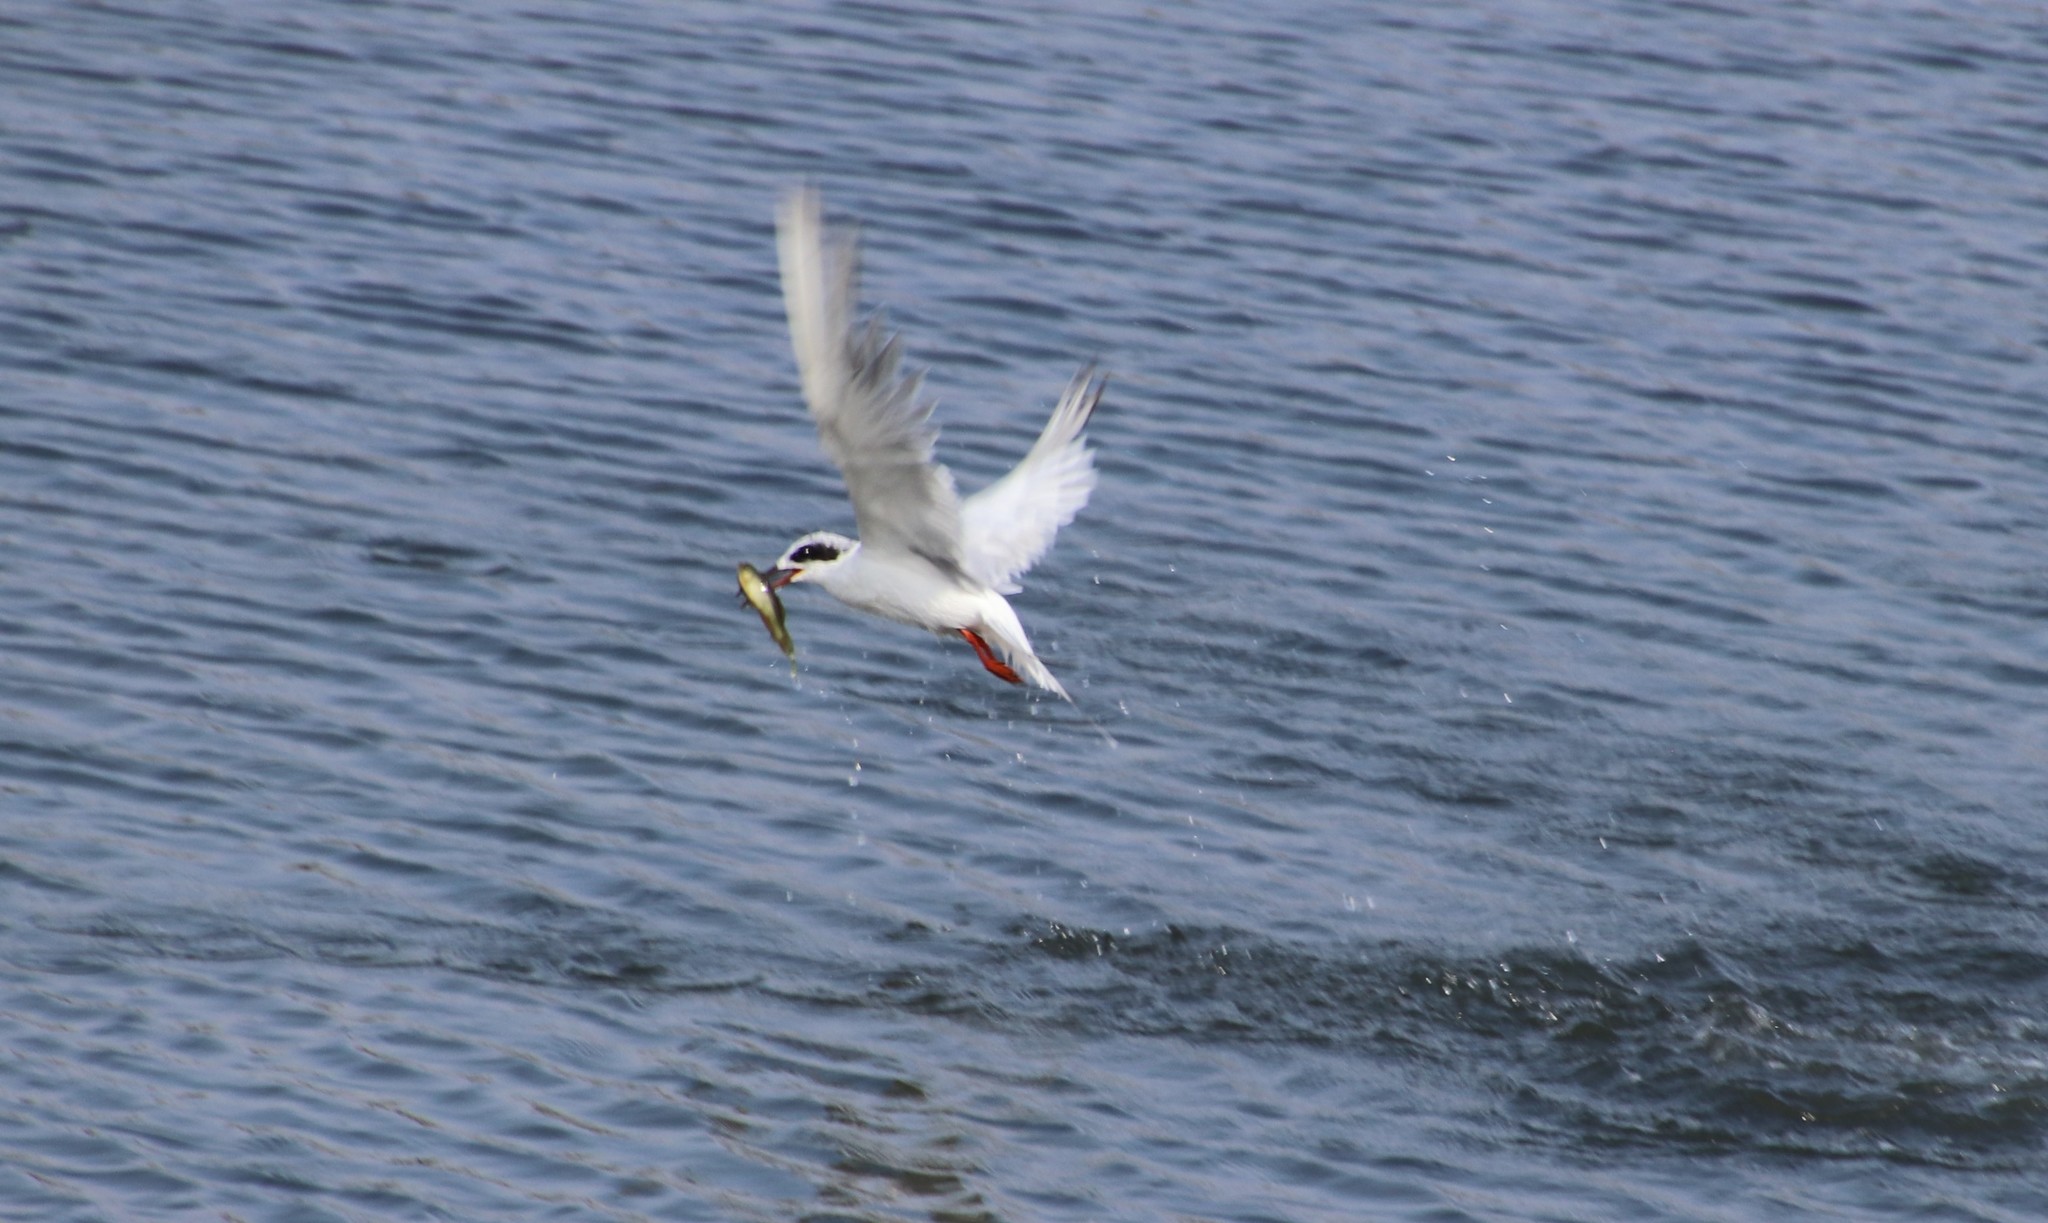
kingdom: Animalia
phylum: Chordata
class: Aves
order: Charadriiformes
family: Laridae
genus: Sterna
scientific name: Sterna forsteri
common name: Forster's tern
